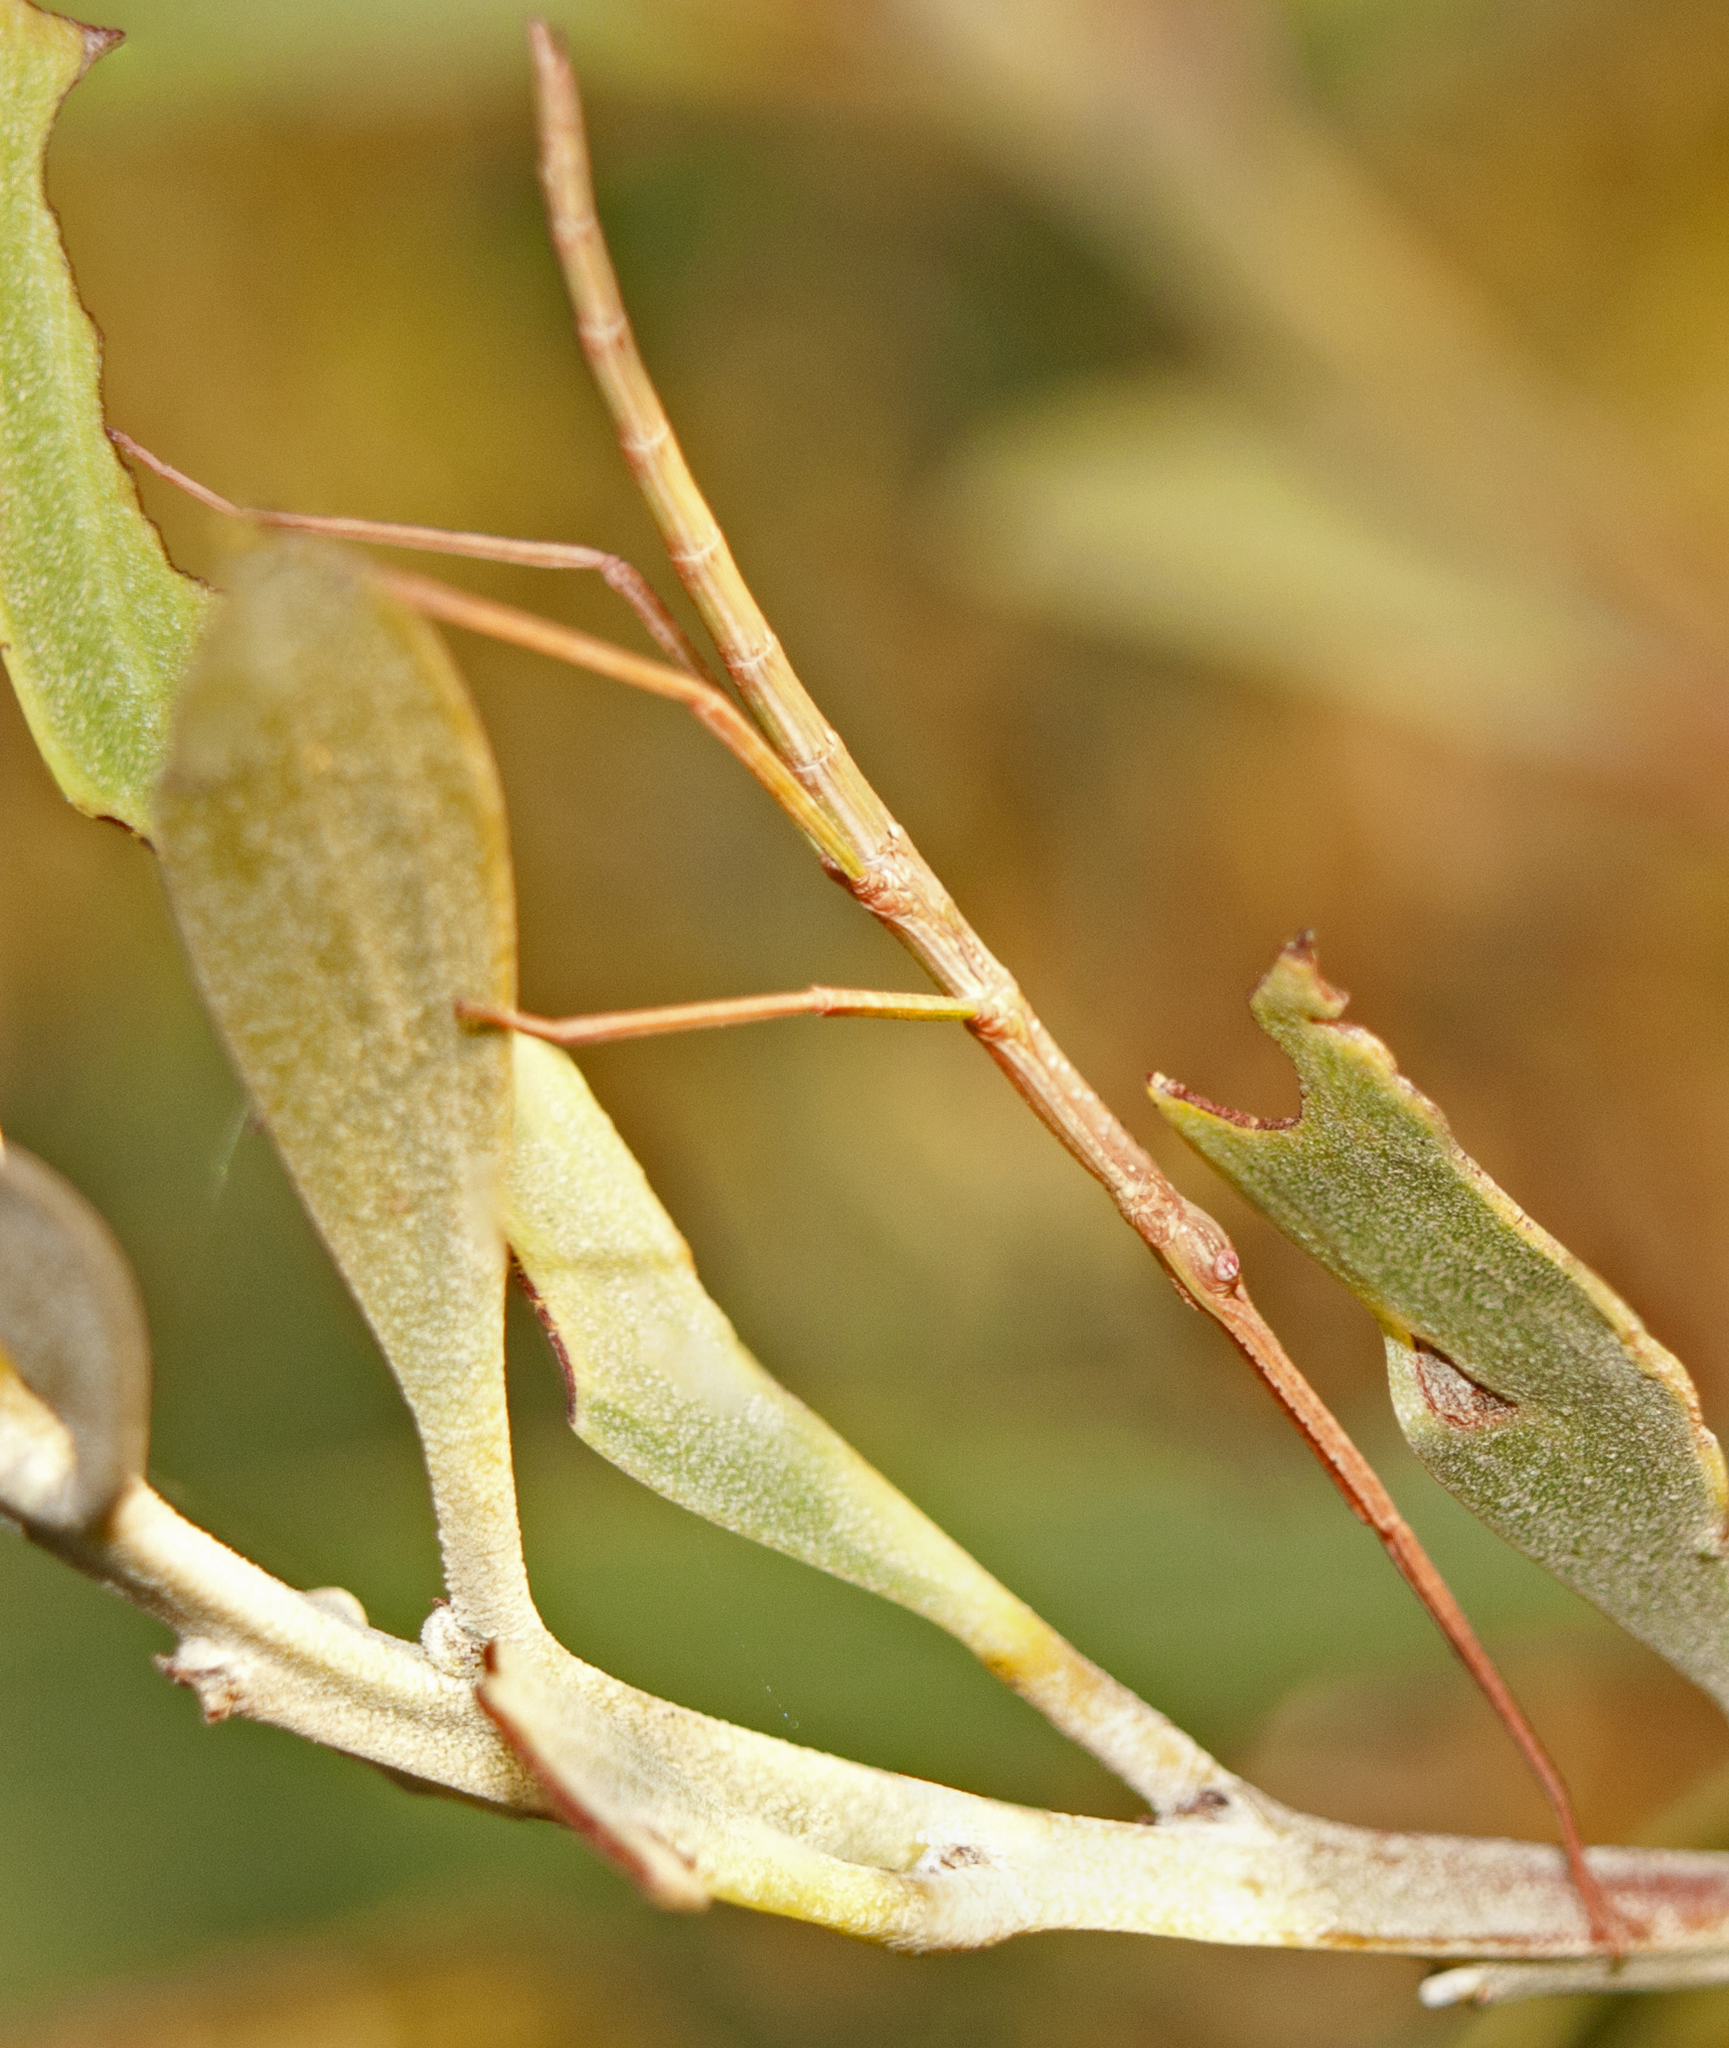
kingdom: Animalia
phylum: Arthropoda
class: Insecta
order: Phasmida
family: Phasmatidae
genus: Anchiale
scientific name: Anchiale austrotessulata
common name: Tessellated stick-insect
